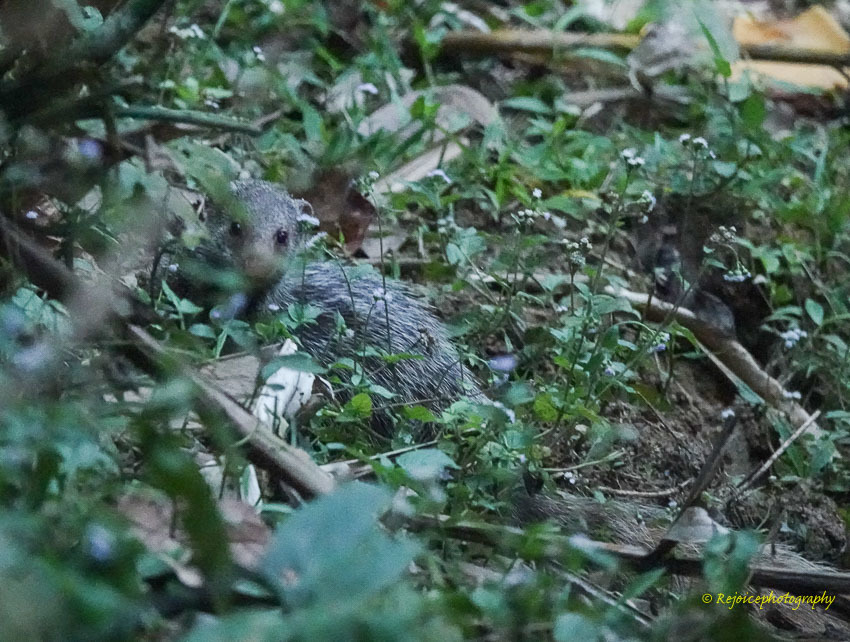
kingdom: Animalia
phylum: Chordata
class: Mammalia
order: Carnivora
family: Herpestidae
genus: Herpestes
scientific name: Herpestes urva
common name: Crab-eating mongoose
